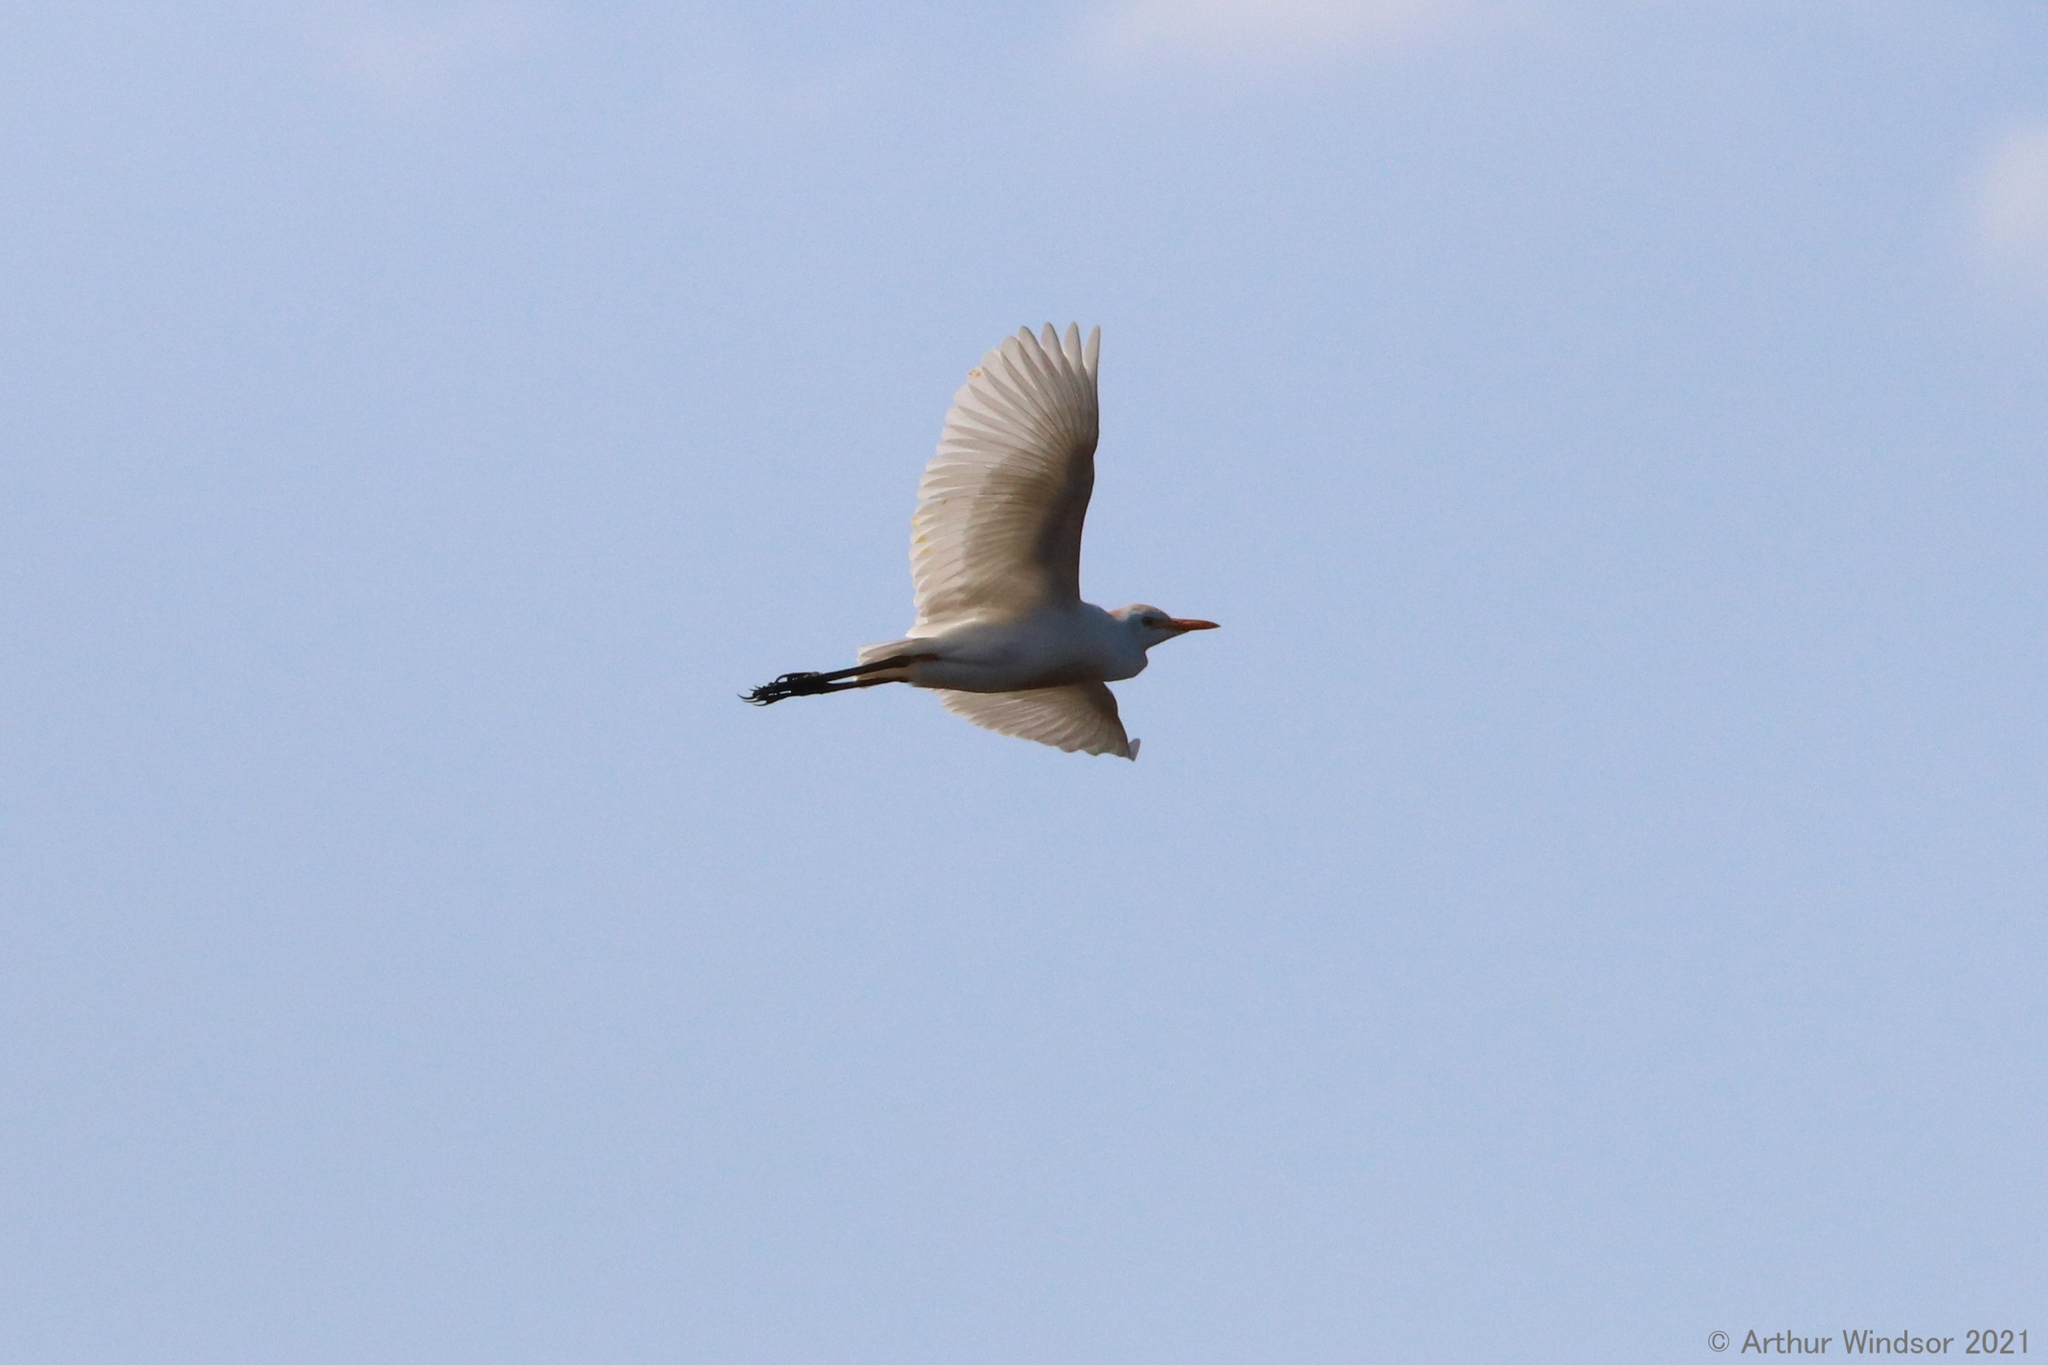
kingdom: Animalia
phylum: Chordata
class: Aves
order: Pelecaniformes
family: Ardeidae
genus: Bubulcus
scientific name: Bubulcus ibis
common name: Cattle egret
